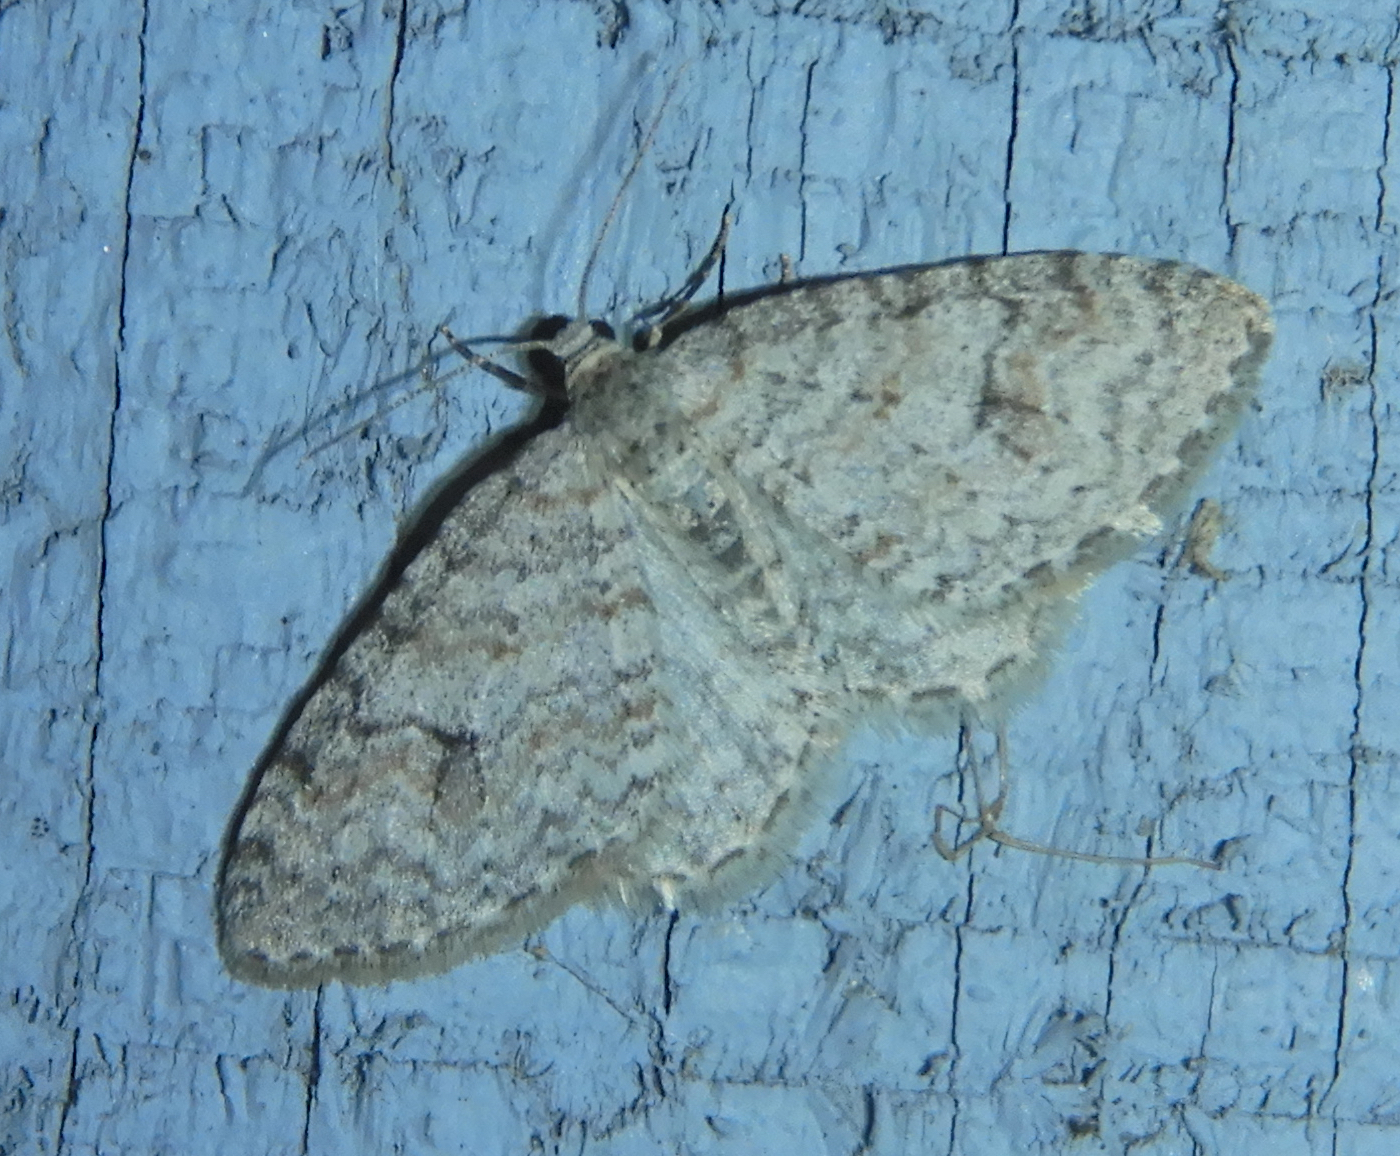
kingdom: Animalia
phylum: Arthropoda
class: Insecta
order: Lepidoptera
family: Geometridae
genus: Venusia
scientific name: Venusia comptaria
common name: Brown-shaded carpet
